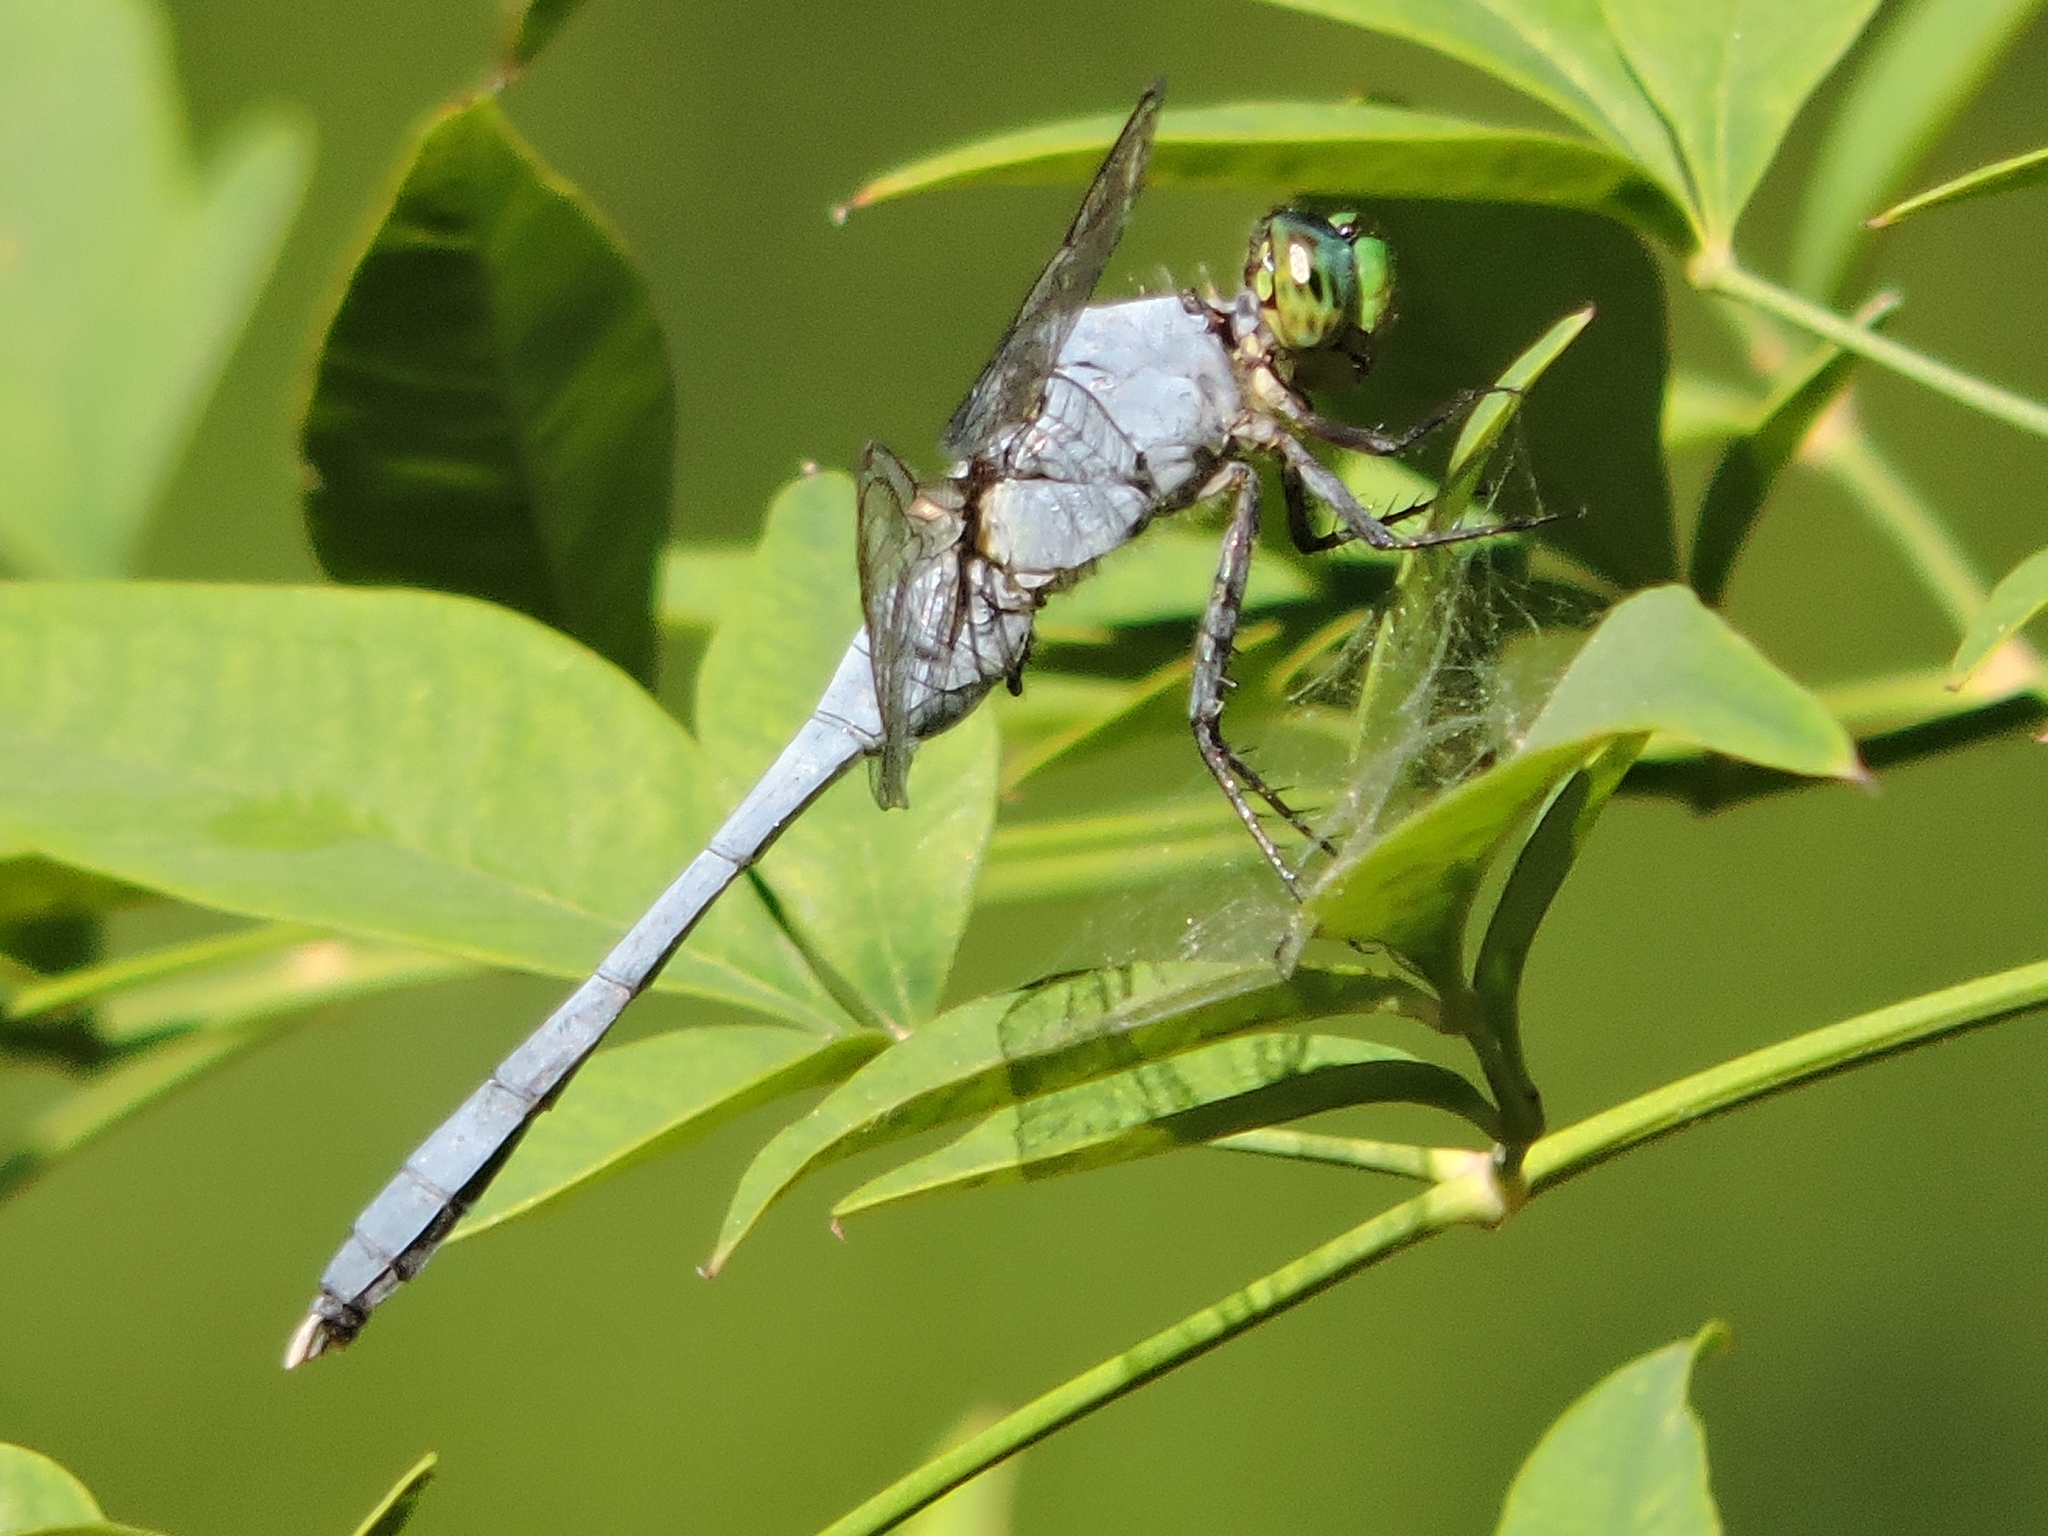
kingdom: Animalia
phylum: Arthropoda
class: Insecta
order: Odonata
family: Libellulidae
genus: Erythemis
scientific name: Erythemis simplicicollis
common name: Eastern pondhawk
